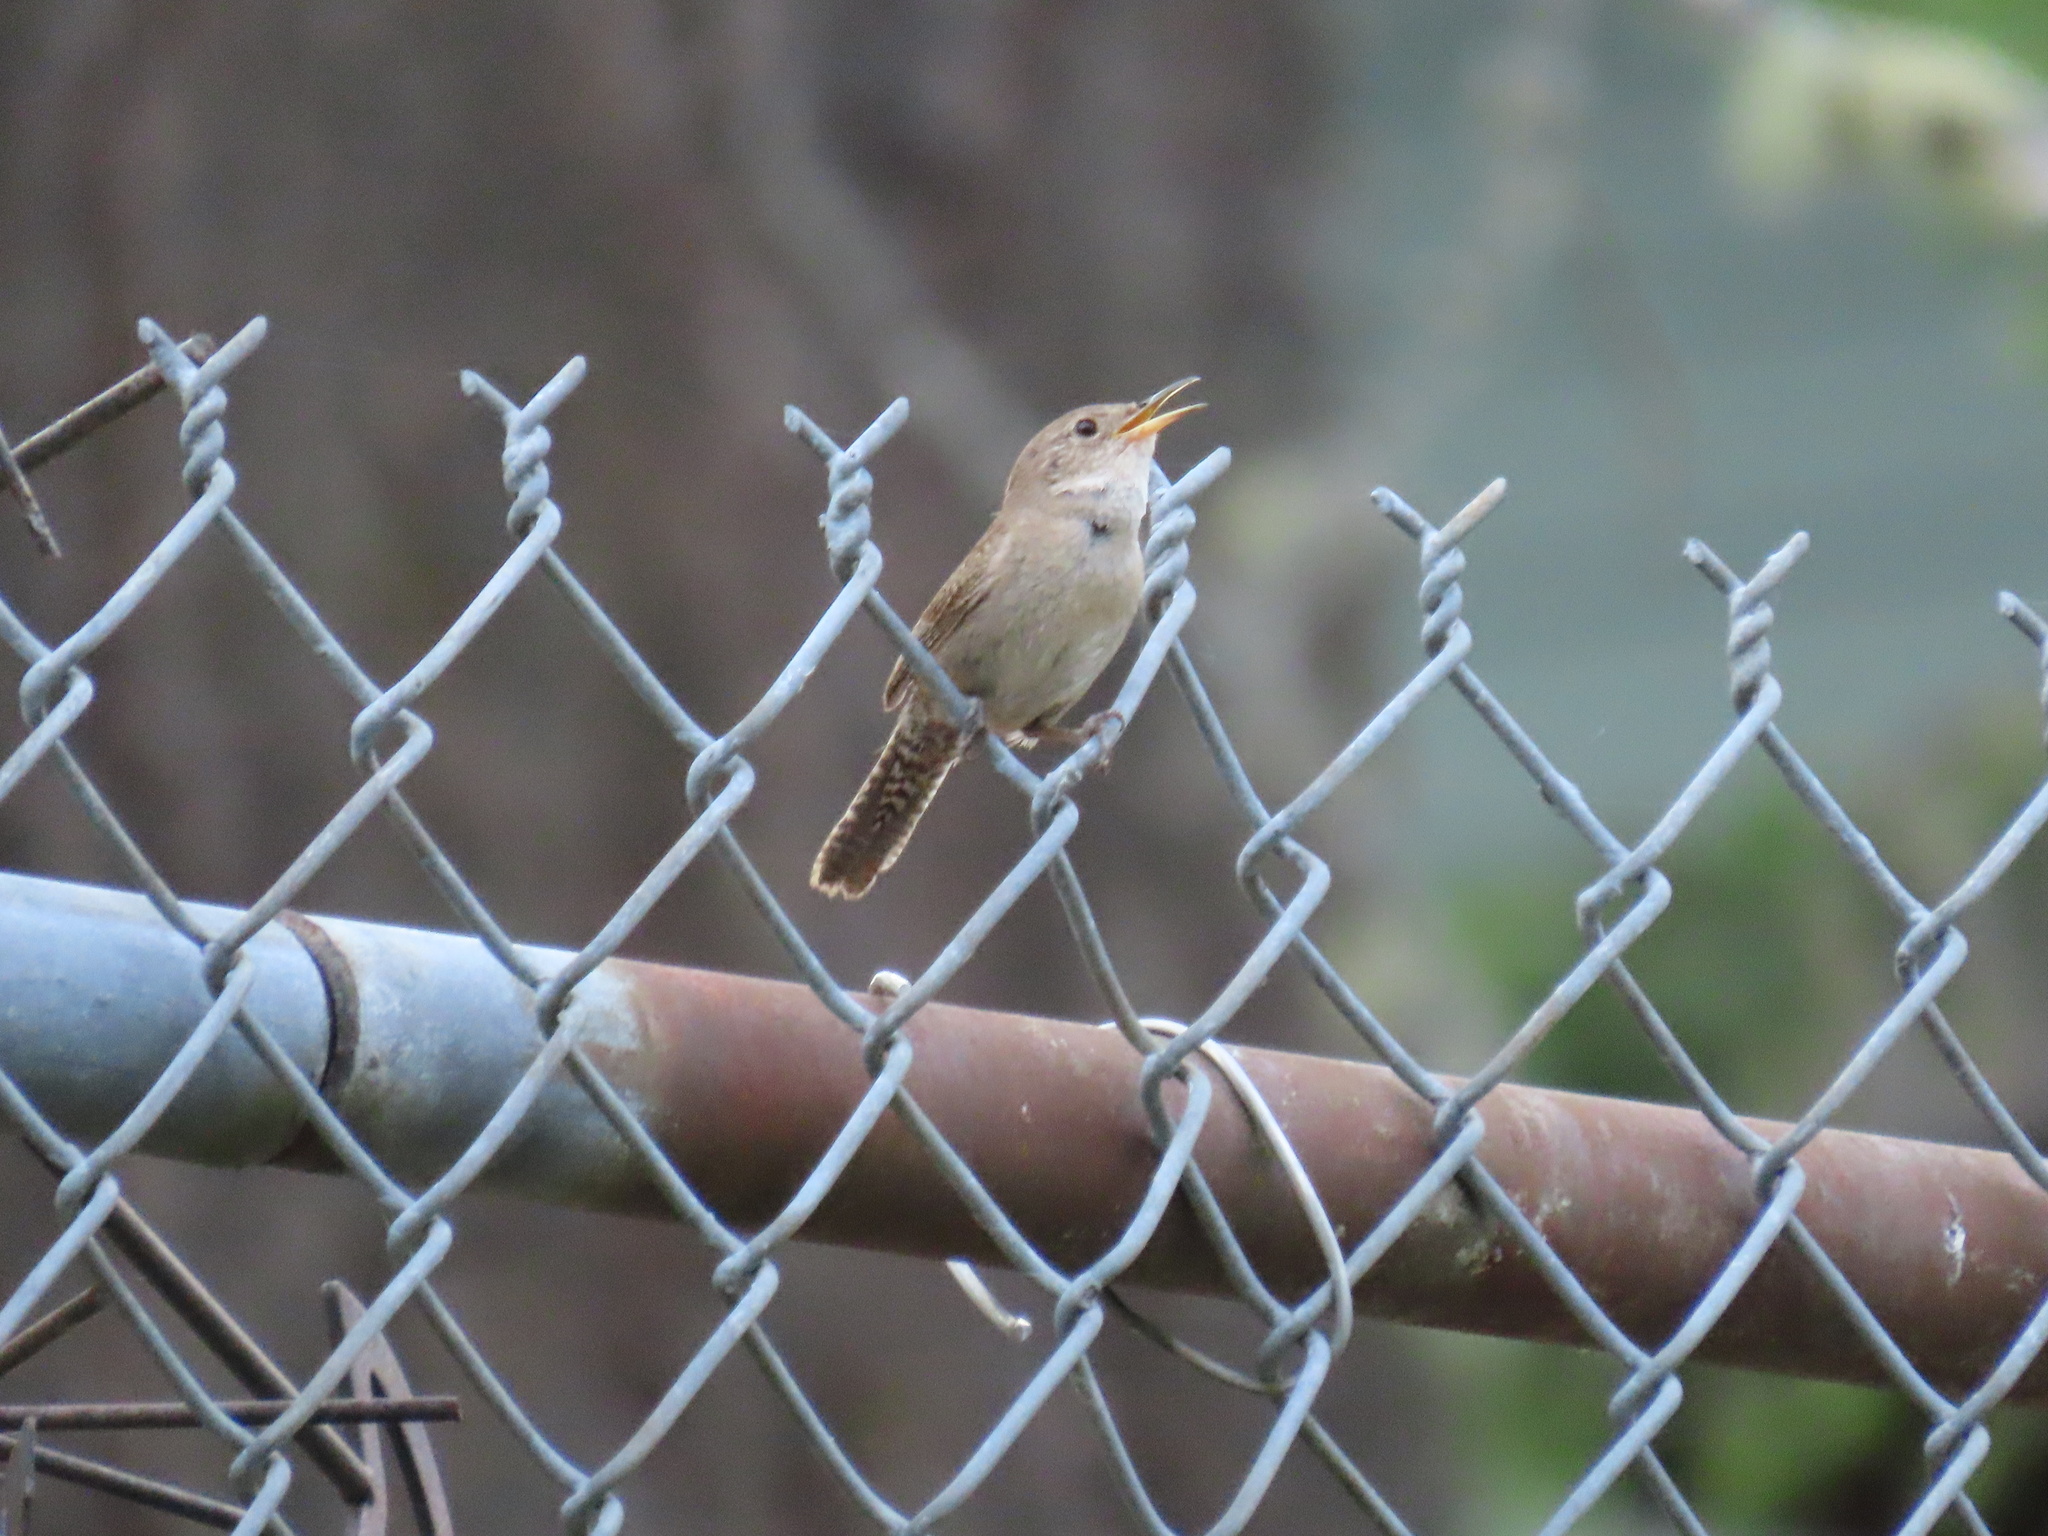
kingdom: Animalia
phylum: Chordata
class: Aves
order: Passeriformes
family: Troglodytidae
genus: Troglodytes
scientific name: Troglodytes aedon
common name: House wren
